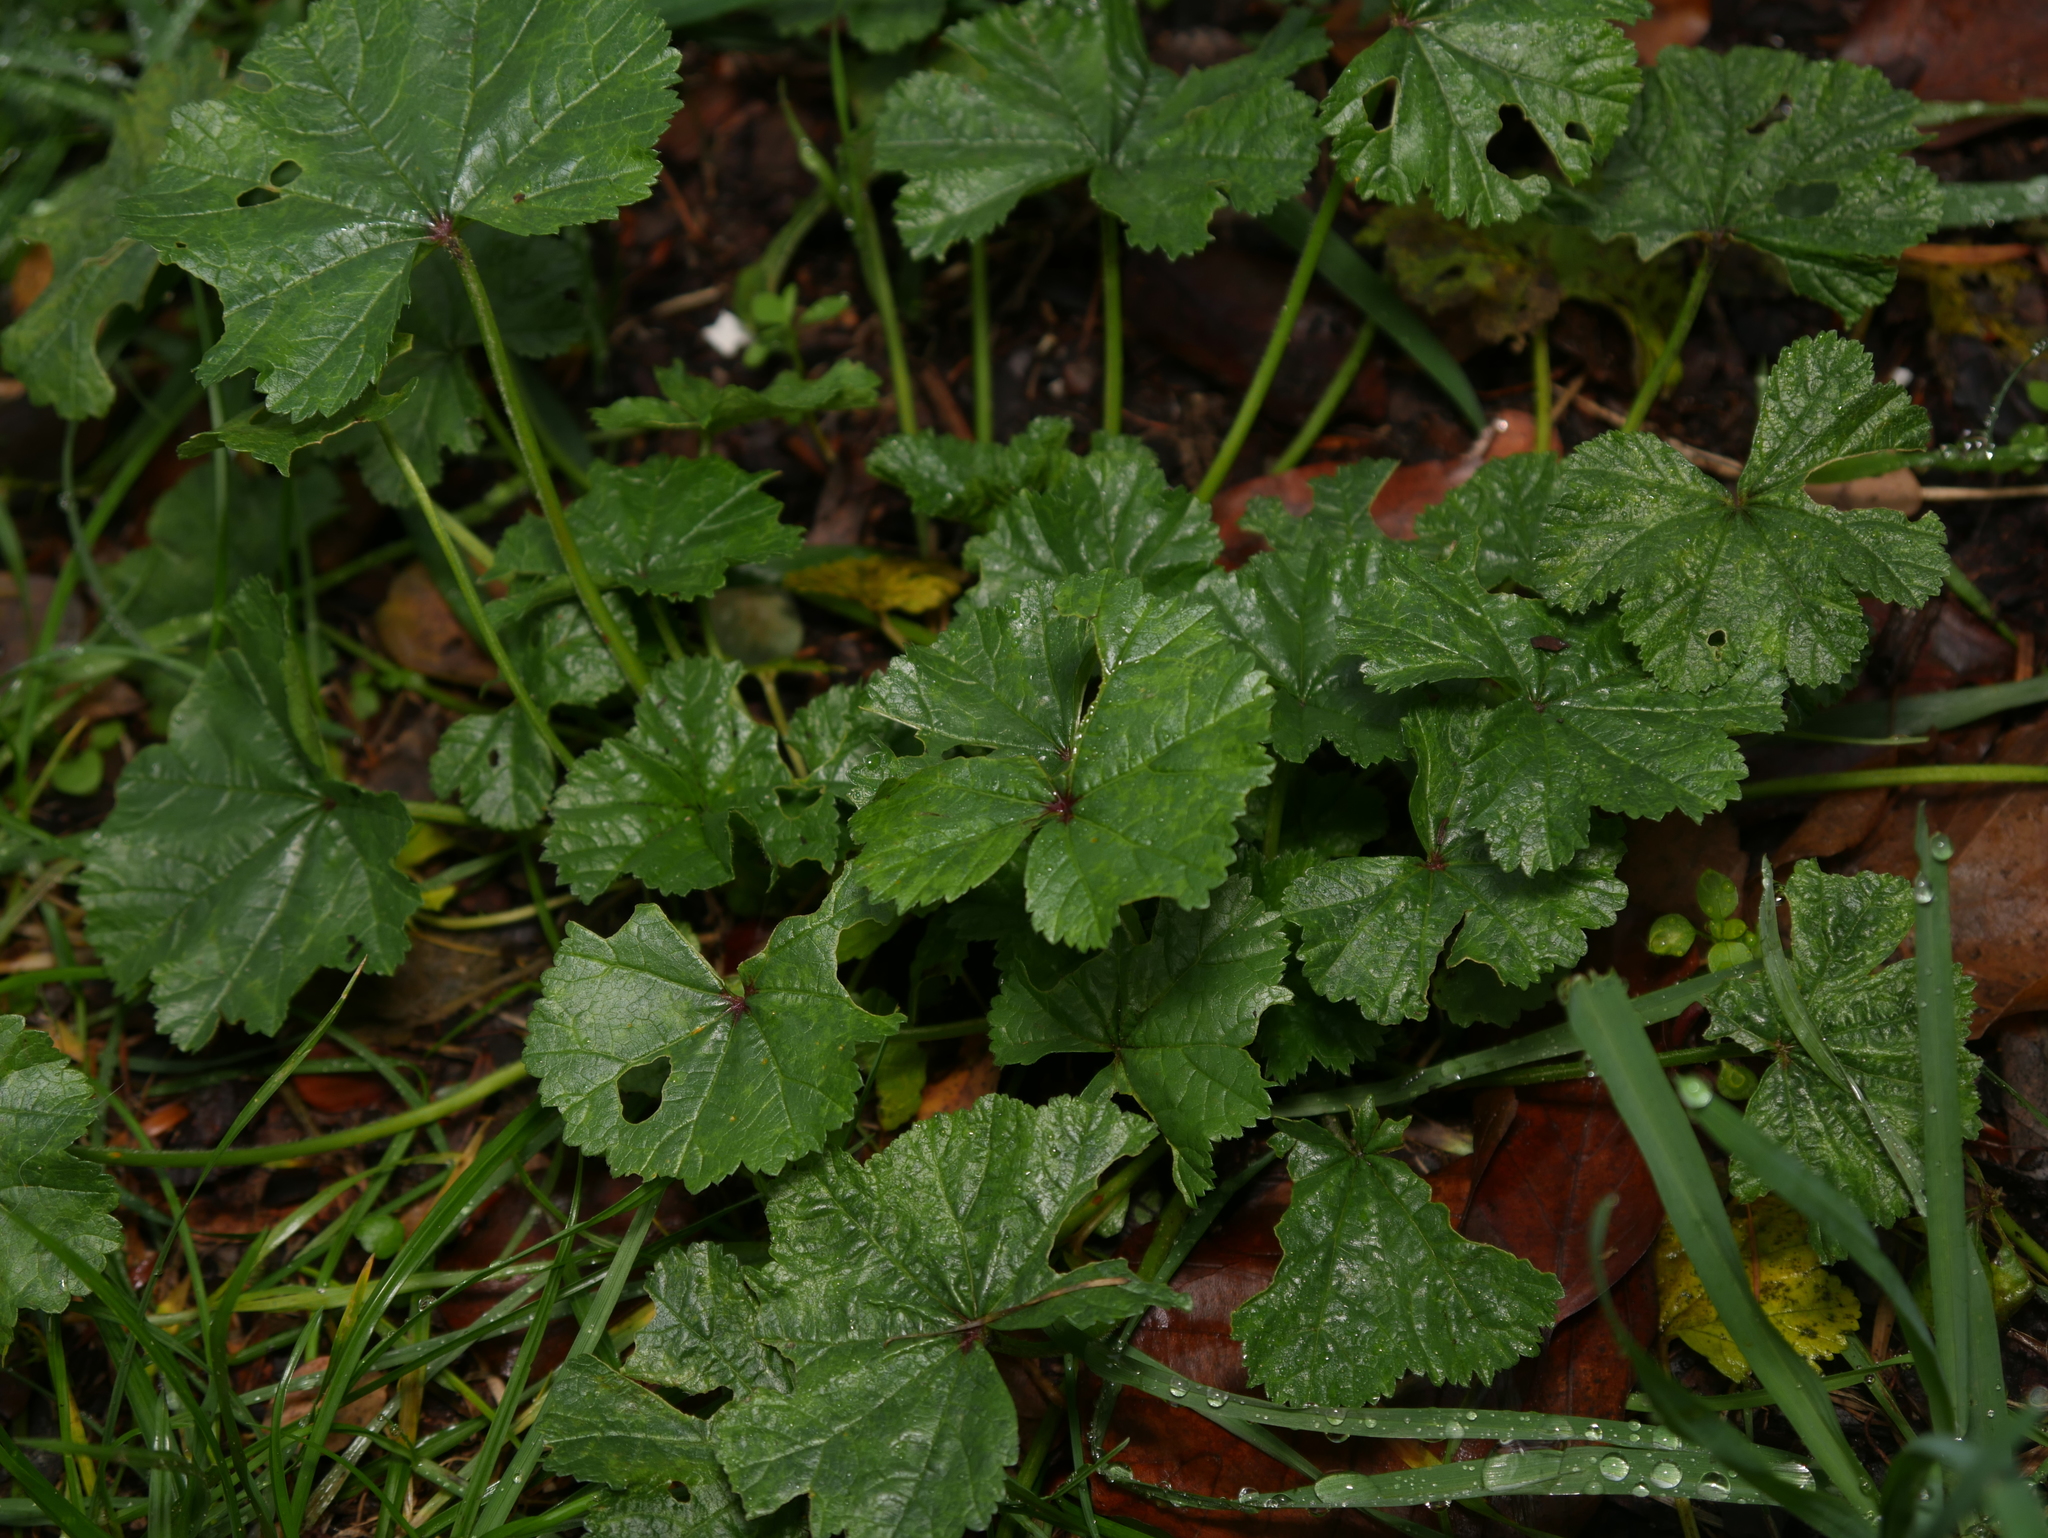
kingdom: Plantae
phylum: Tracheophyta
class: Magnoliopsida
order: Malvales
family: Malvaceae
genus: Malva
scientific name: Malva sylvestris
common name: Common mallow
